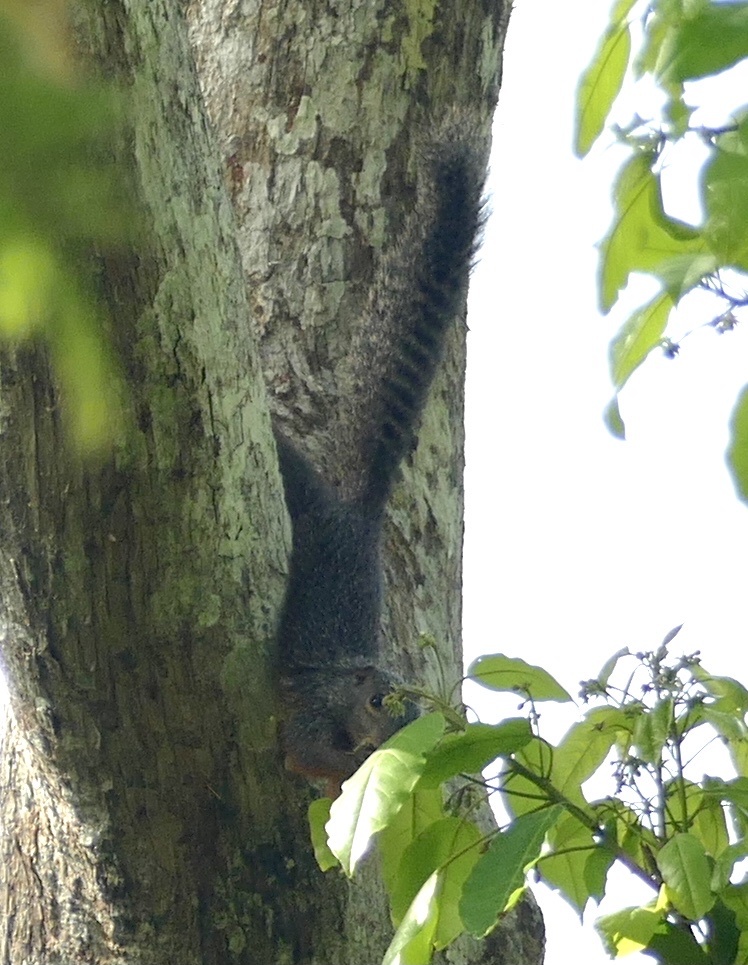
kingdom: Animalia
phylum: Chordata
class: Mammalia
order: Rodentia
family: Sciuridae
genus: Heliosciurus
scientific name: Heliosciurus rufobrachium
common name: Red-legged sun squirrel
